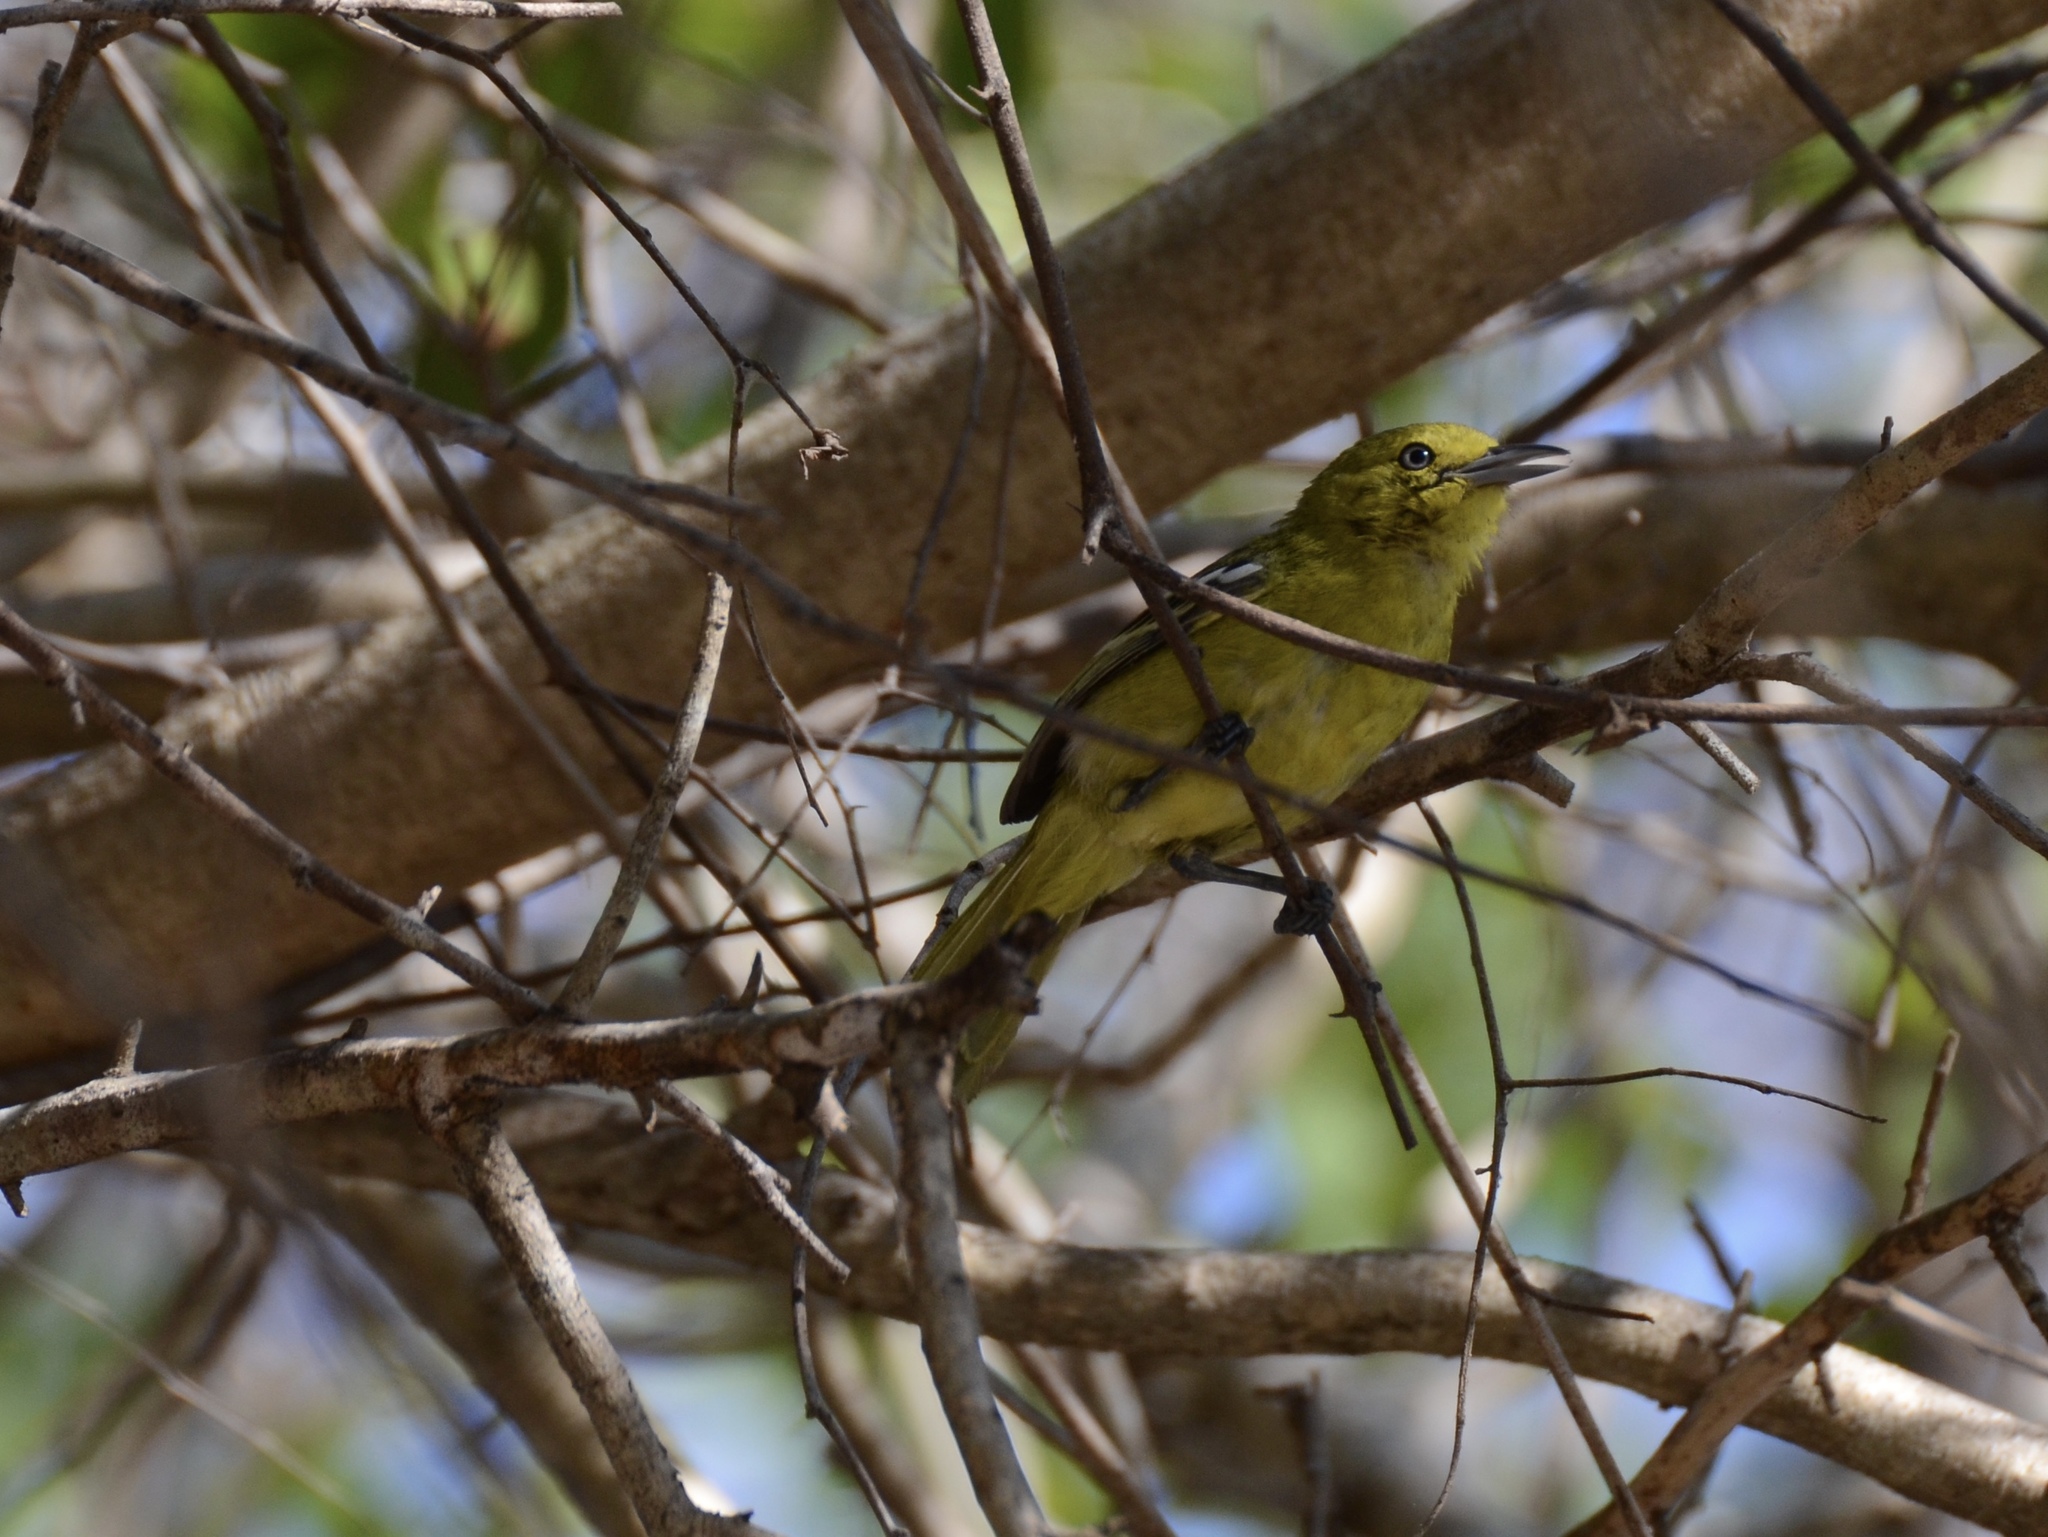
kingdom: Animalia
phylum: Chordata
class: Aves
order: Passeriformes
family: Aegithinidae
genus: Aegithina
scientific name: Aegithina tiphia
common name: Common iora
